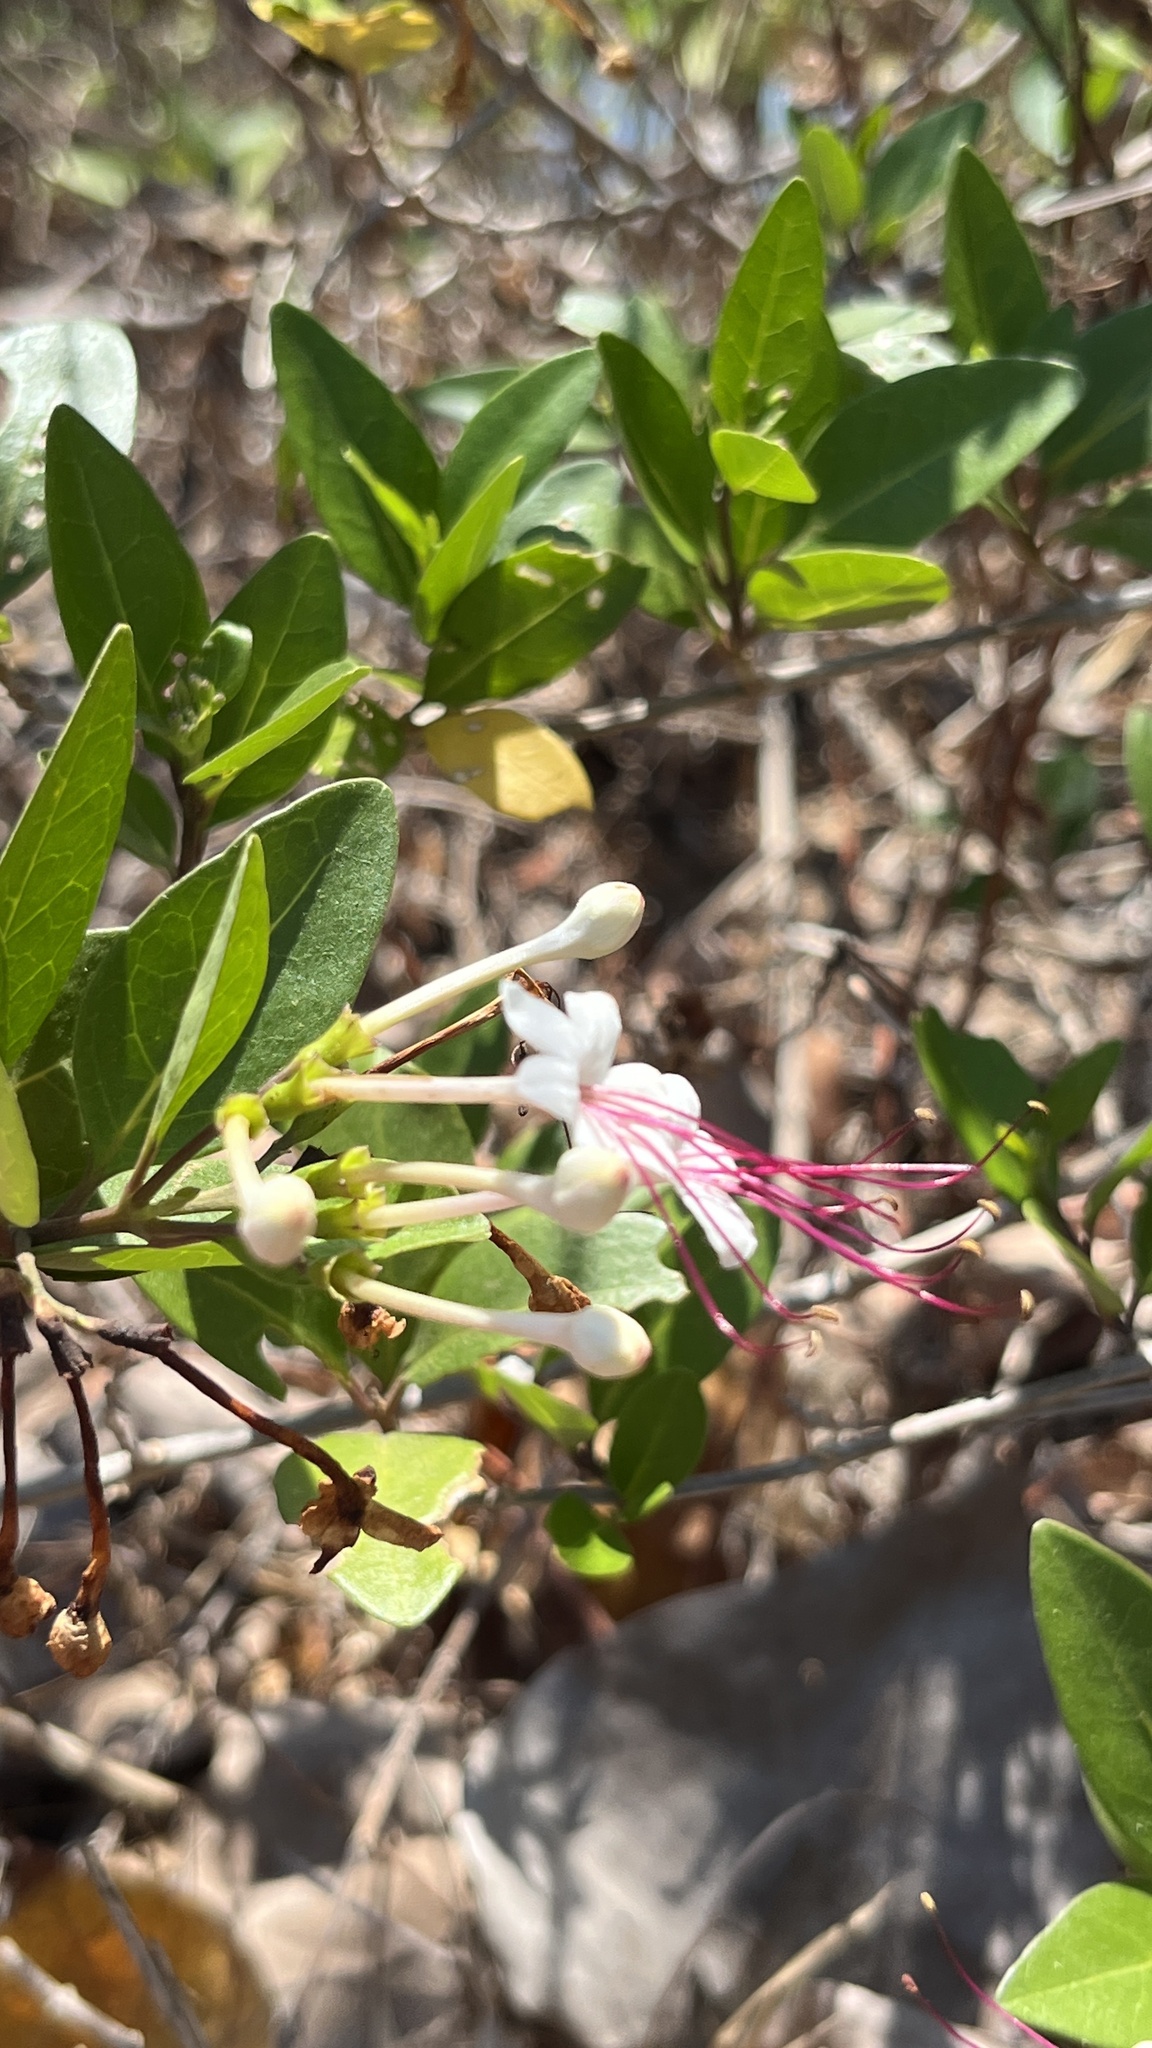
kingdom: Plantae
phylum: Tracheophyta
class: Magnoliopsida
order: Lamiales
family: Lamiaceae
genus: Volkameria
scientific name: Volkameria inermis
